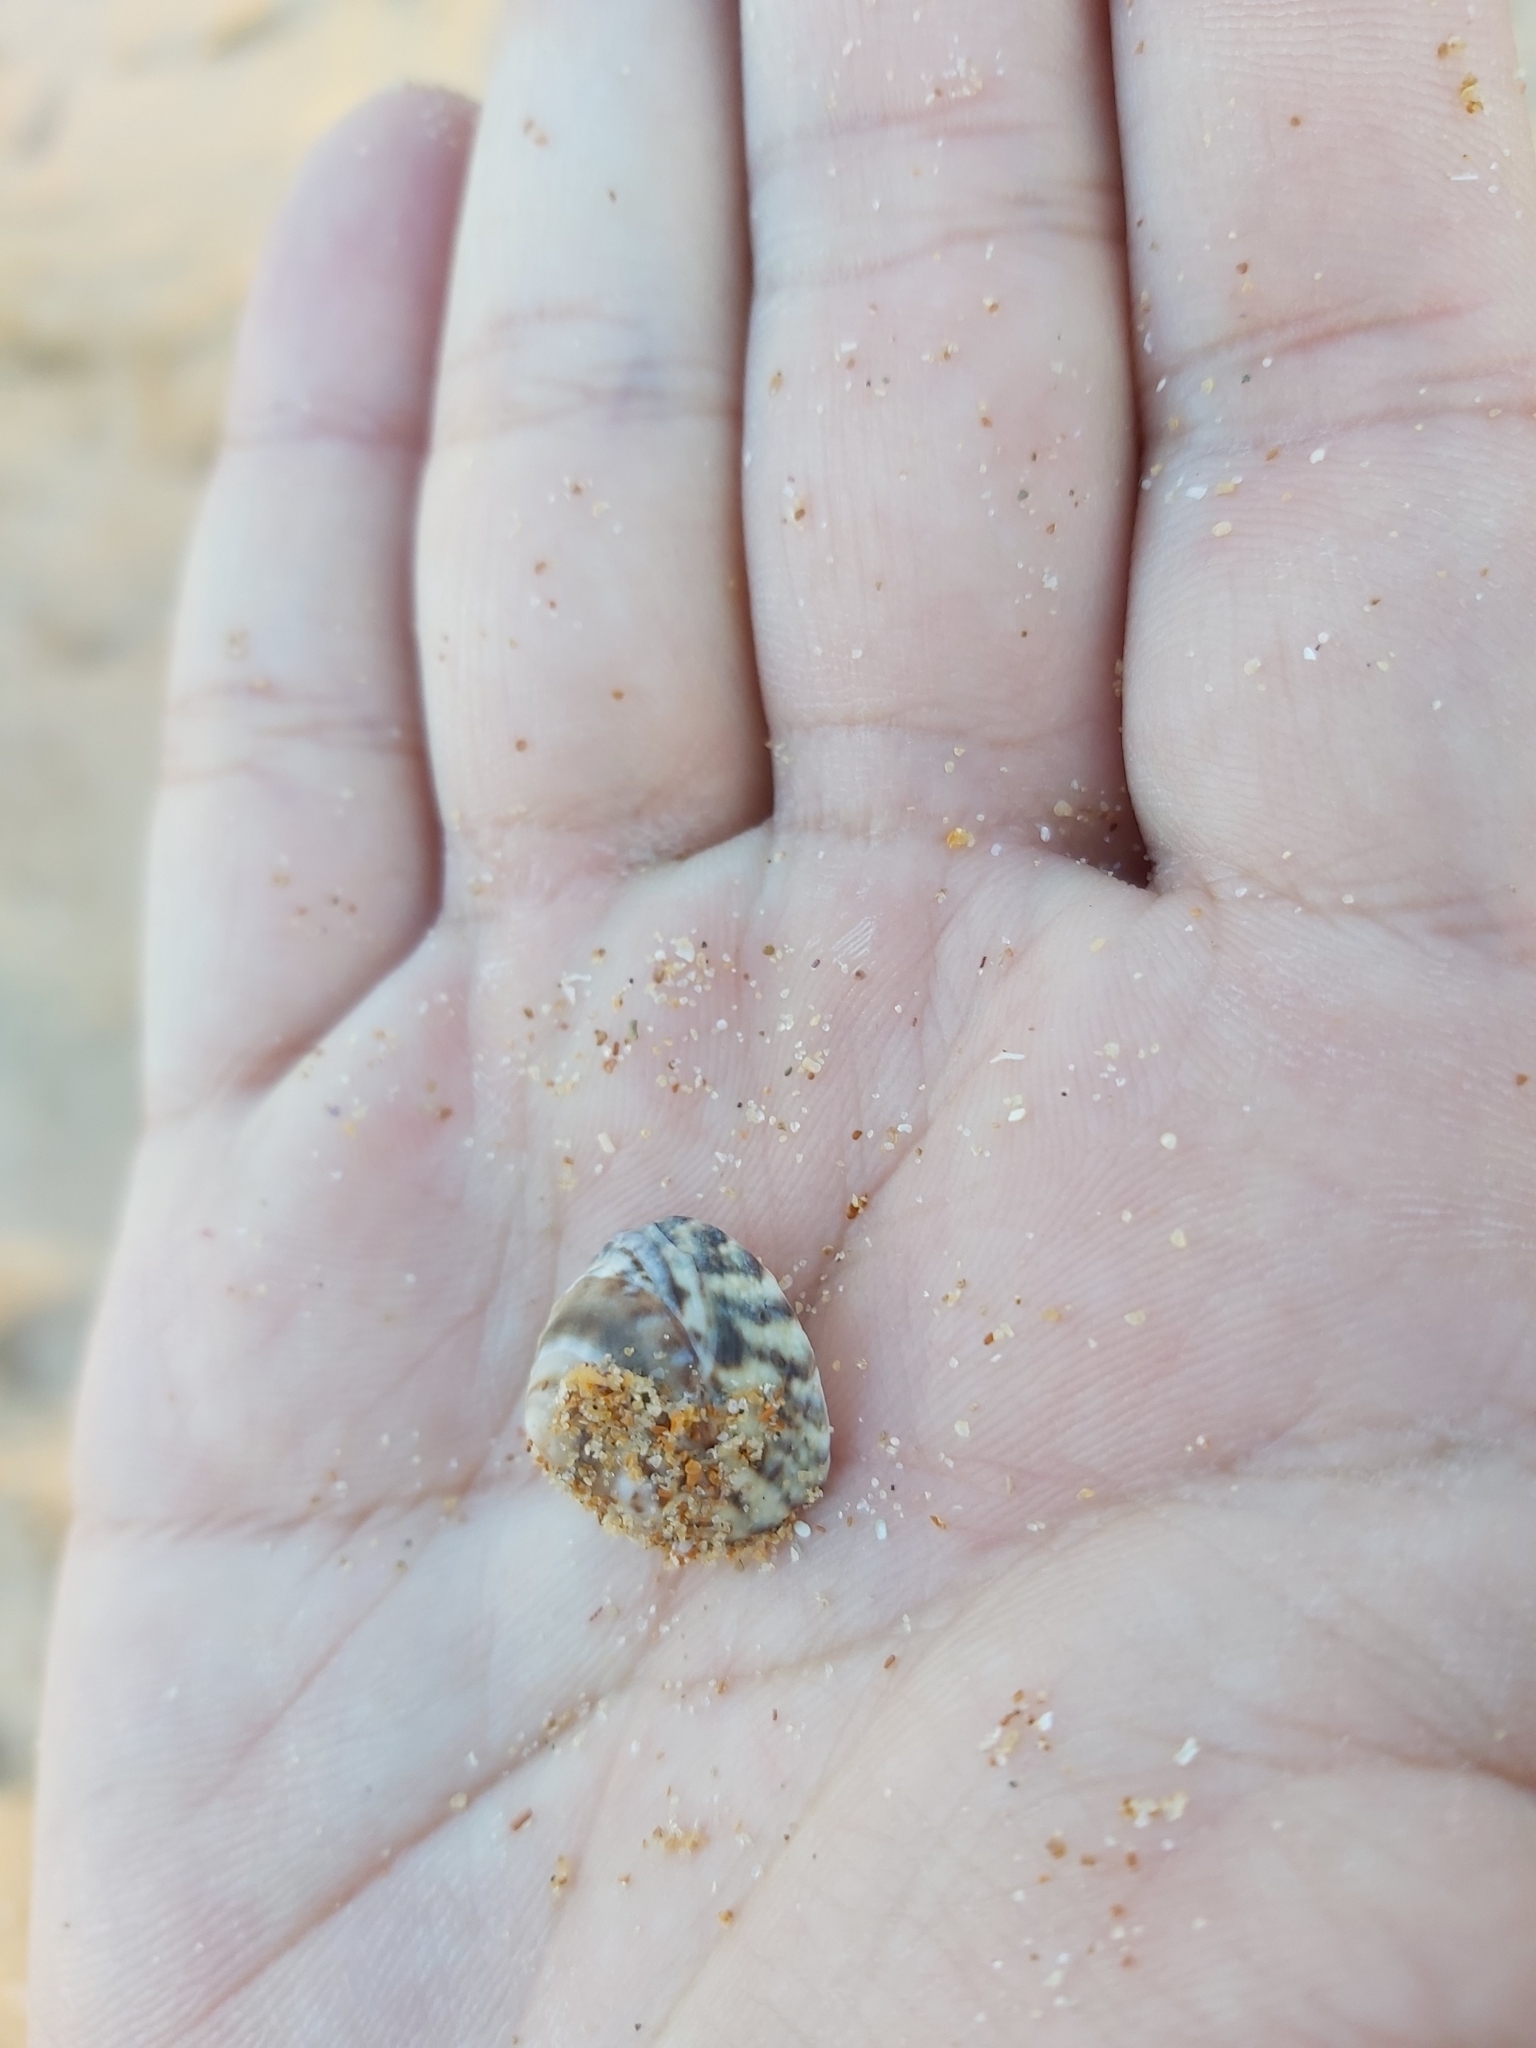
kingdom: Animalia
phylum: Mollusca
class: Gastropoda
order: Littorinimorpha
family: Littorinidae
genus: Bembicium
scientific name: Bembicium nanum
